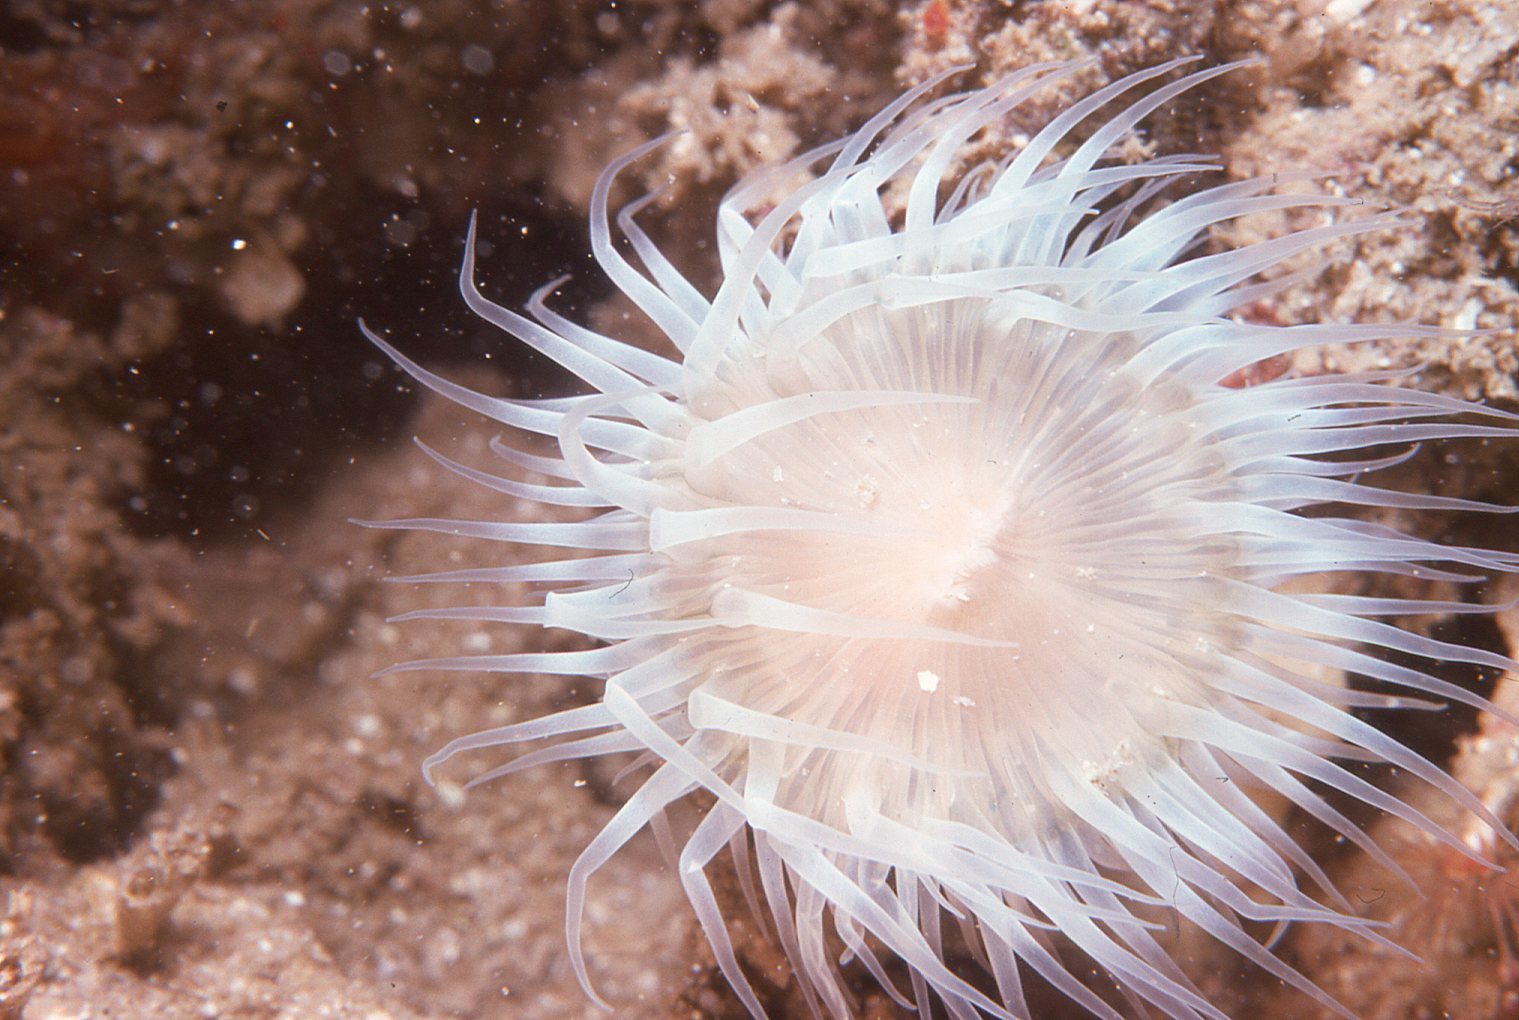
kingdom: Animalia
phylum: Cnidaria
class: Anthozoa
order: Actiniaria
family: Sagartiidae
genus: Anthothoe
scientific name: Anthothoe albocincta
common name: Orange striped anemone
